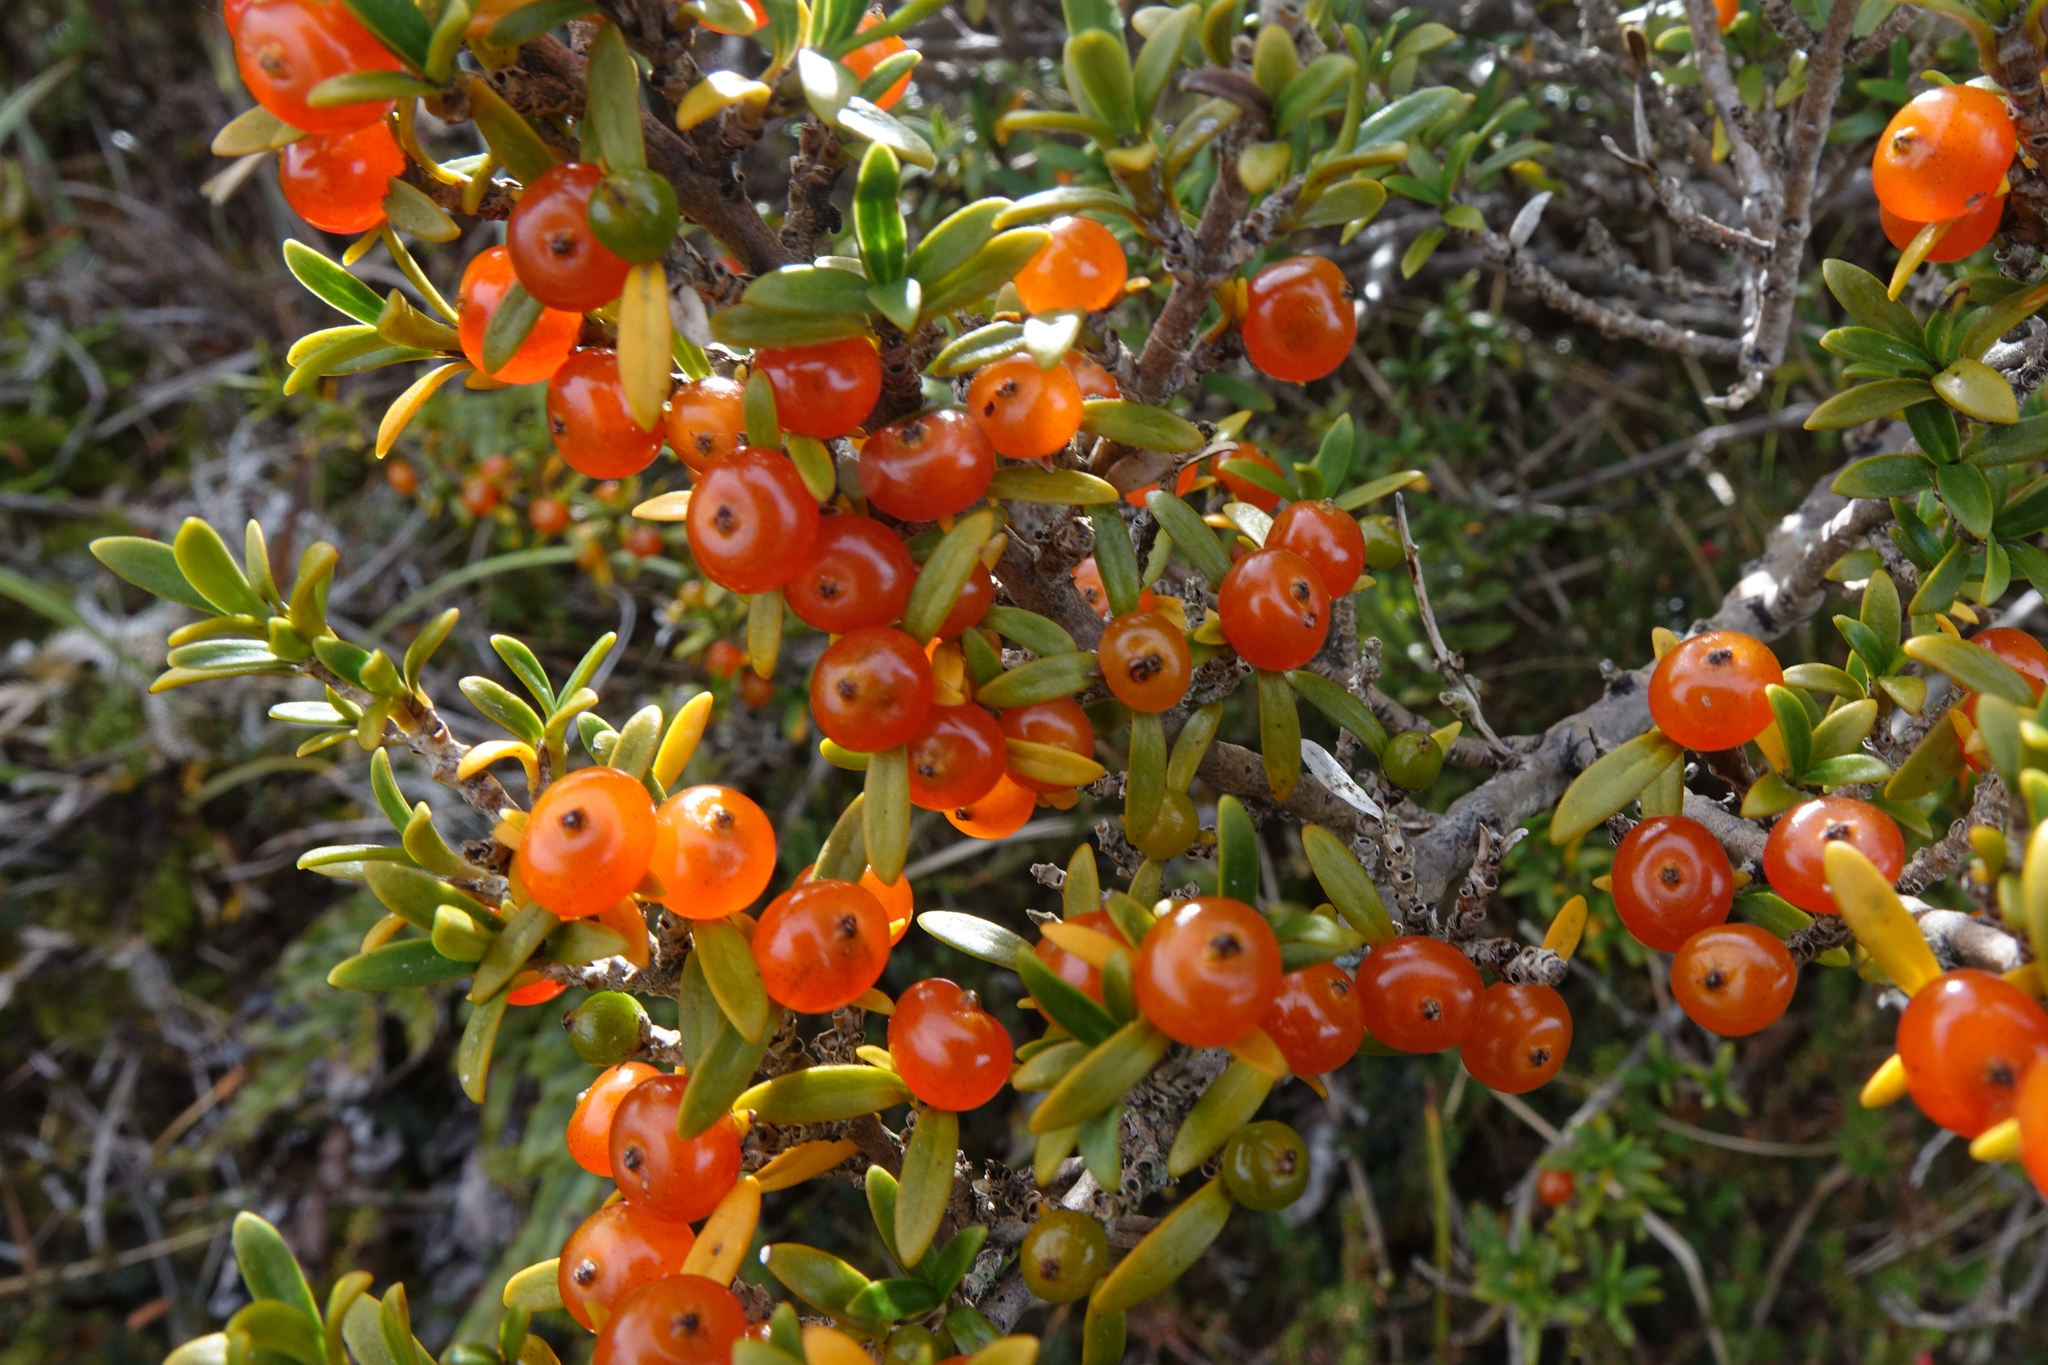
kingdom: Plantae
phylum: Tracheophyta
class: Magnoliopsida
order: Gentianales
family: Rubiaceae
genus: Coprosma
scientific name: Coprosma pseudocuneata
